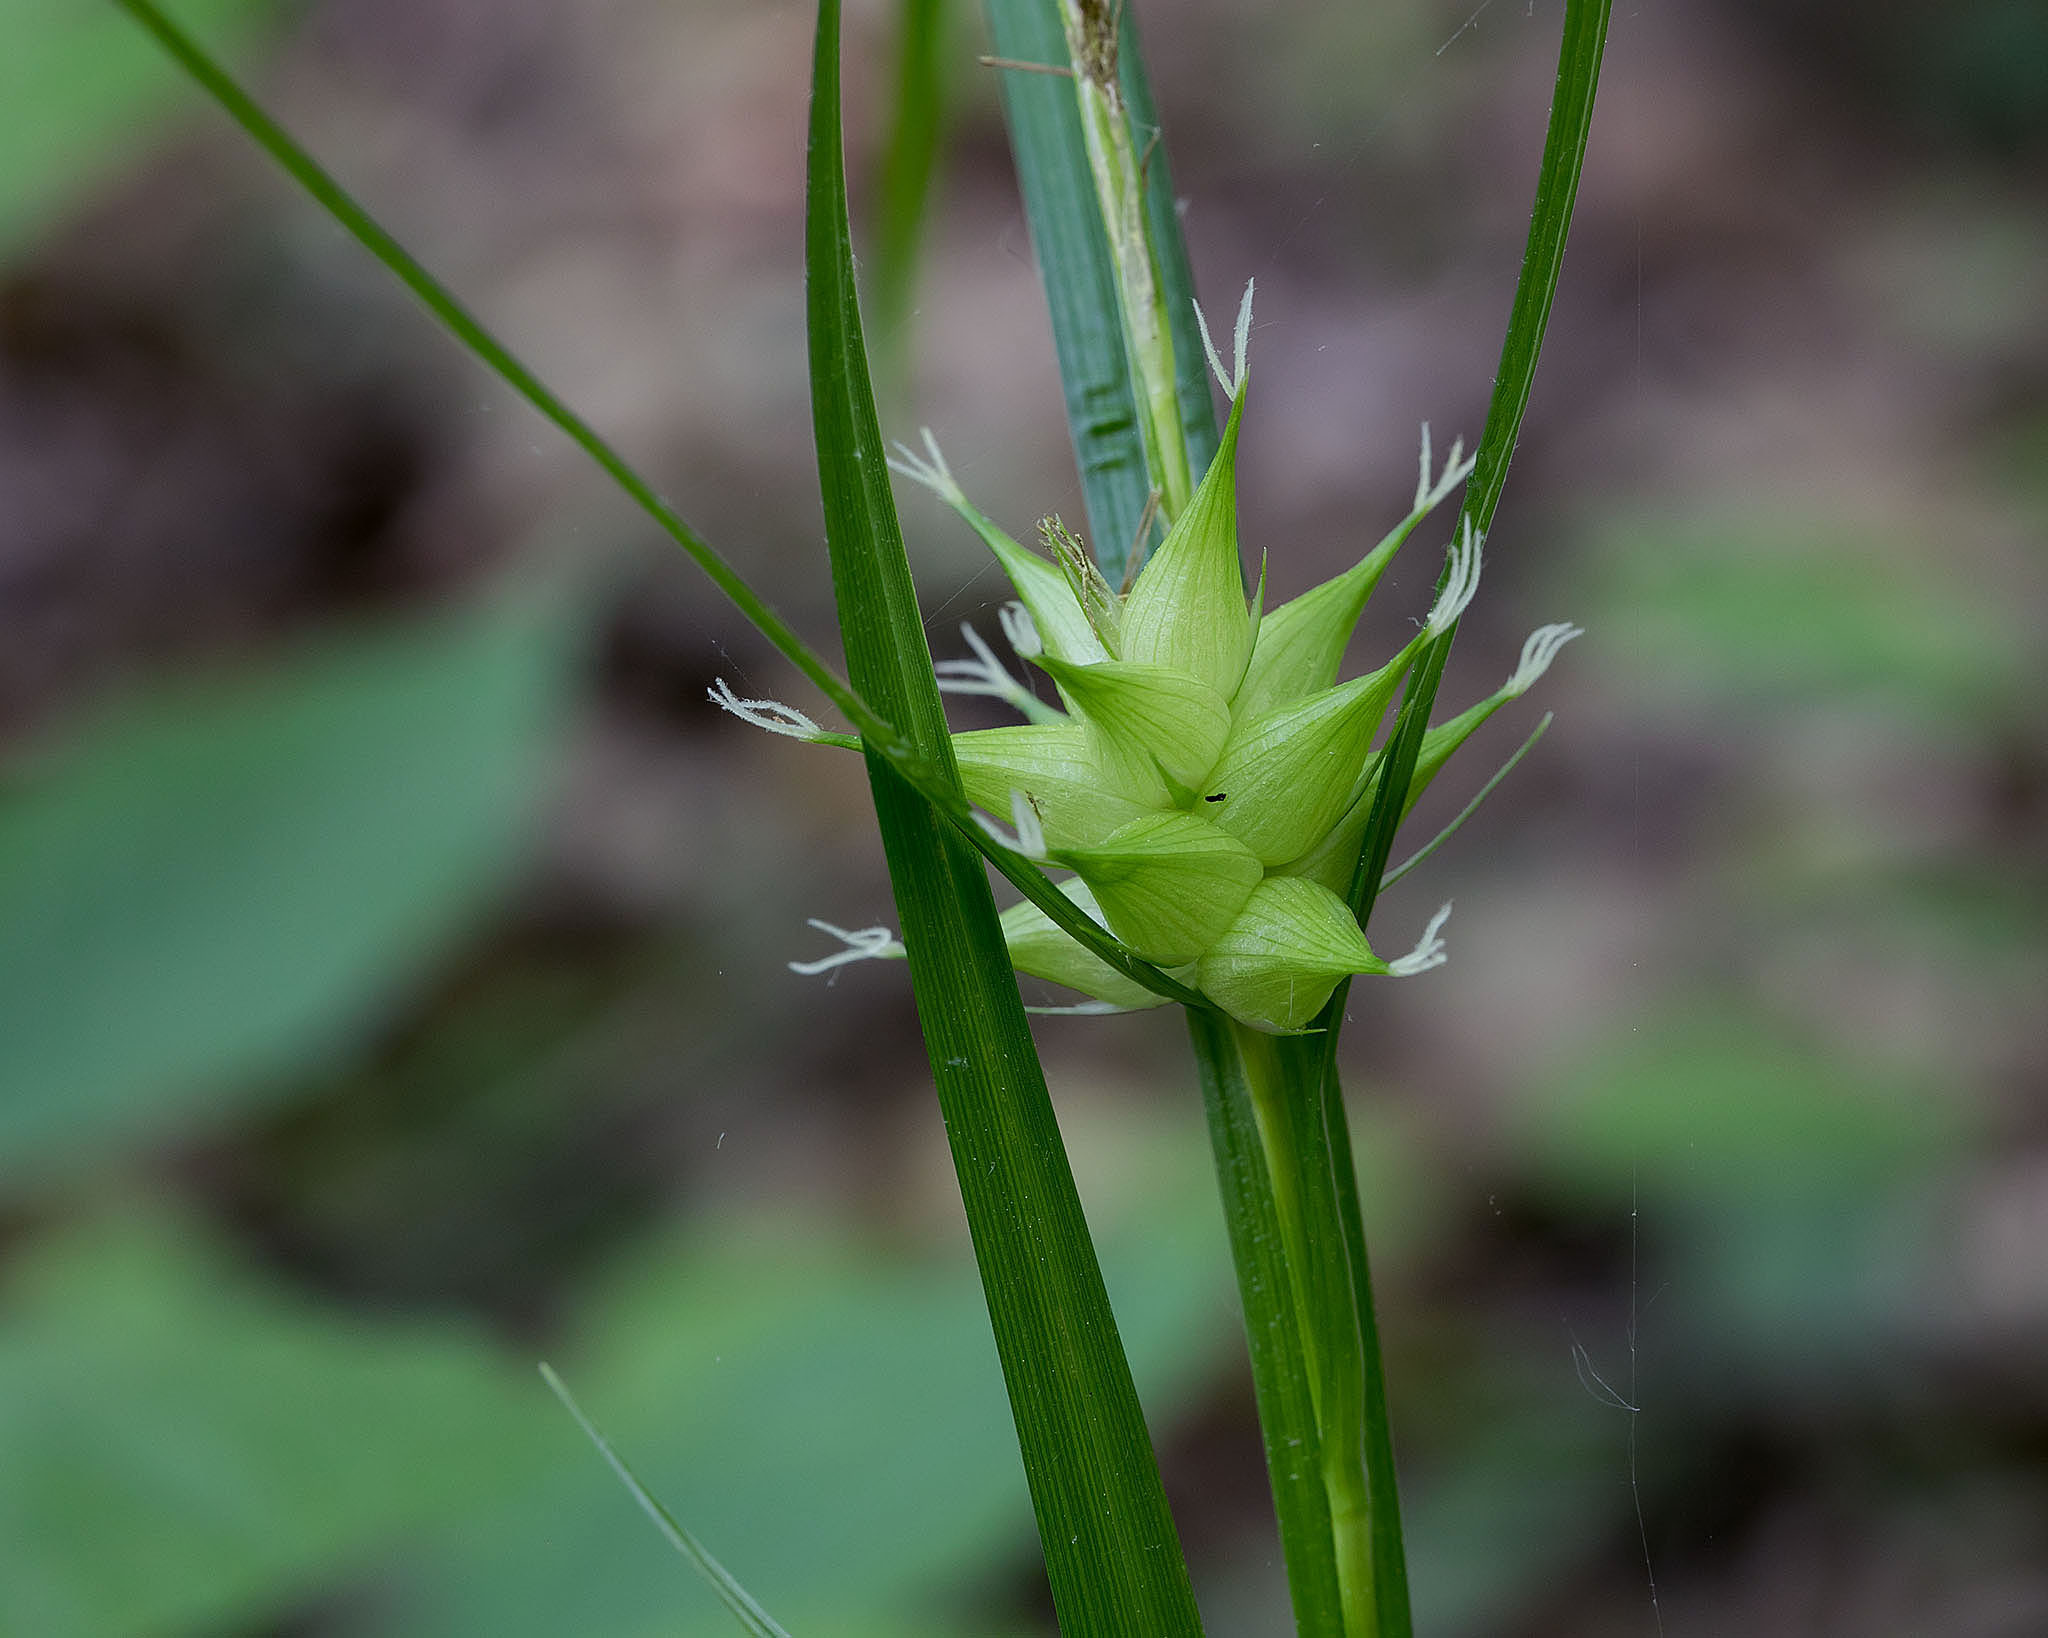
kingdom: Plantae
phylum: Tracheophyta
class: Liliopsida
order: Poales
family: Cyperaceae
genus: Carex
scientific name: Carex intumescens
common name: Greater bladder sedge
